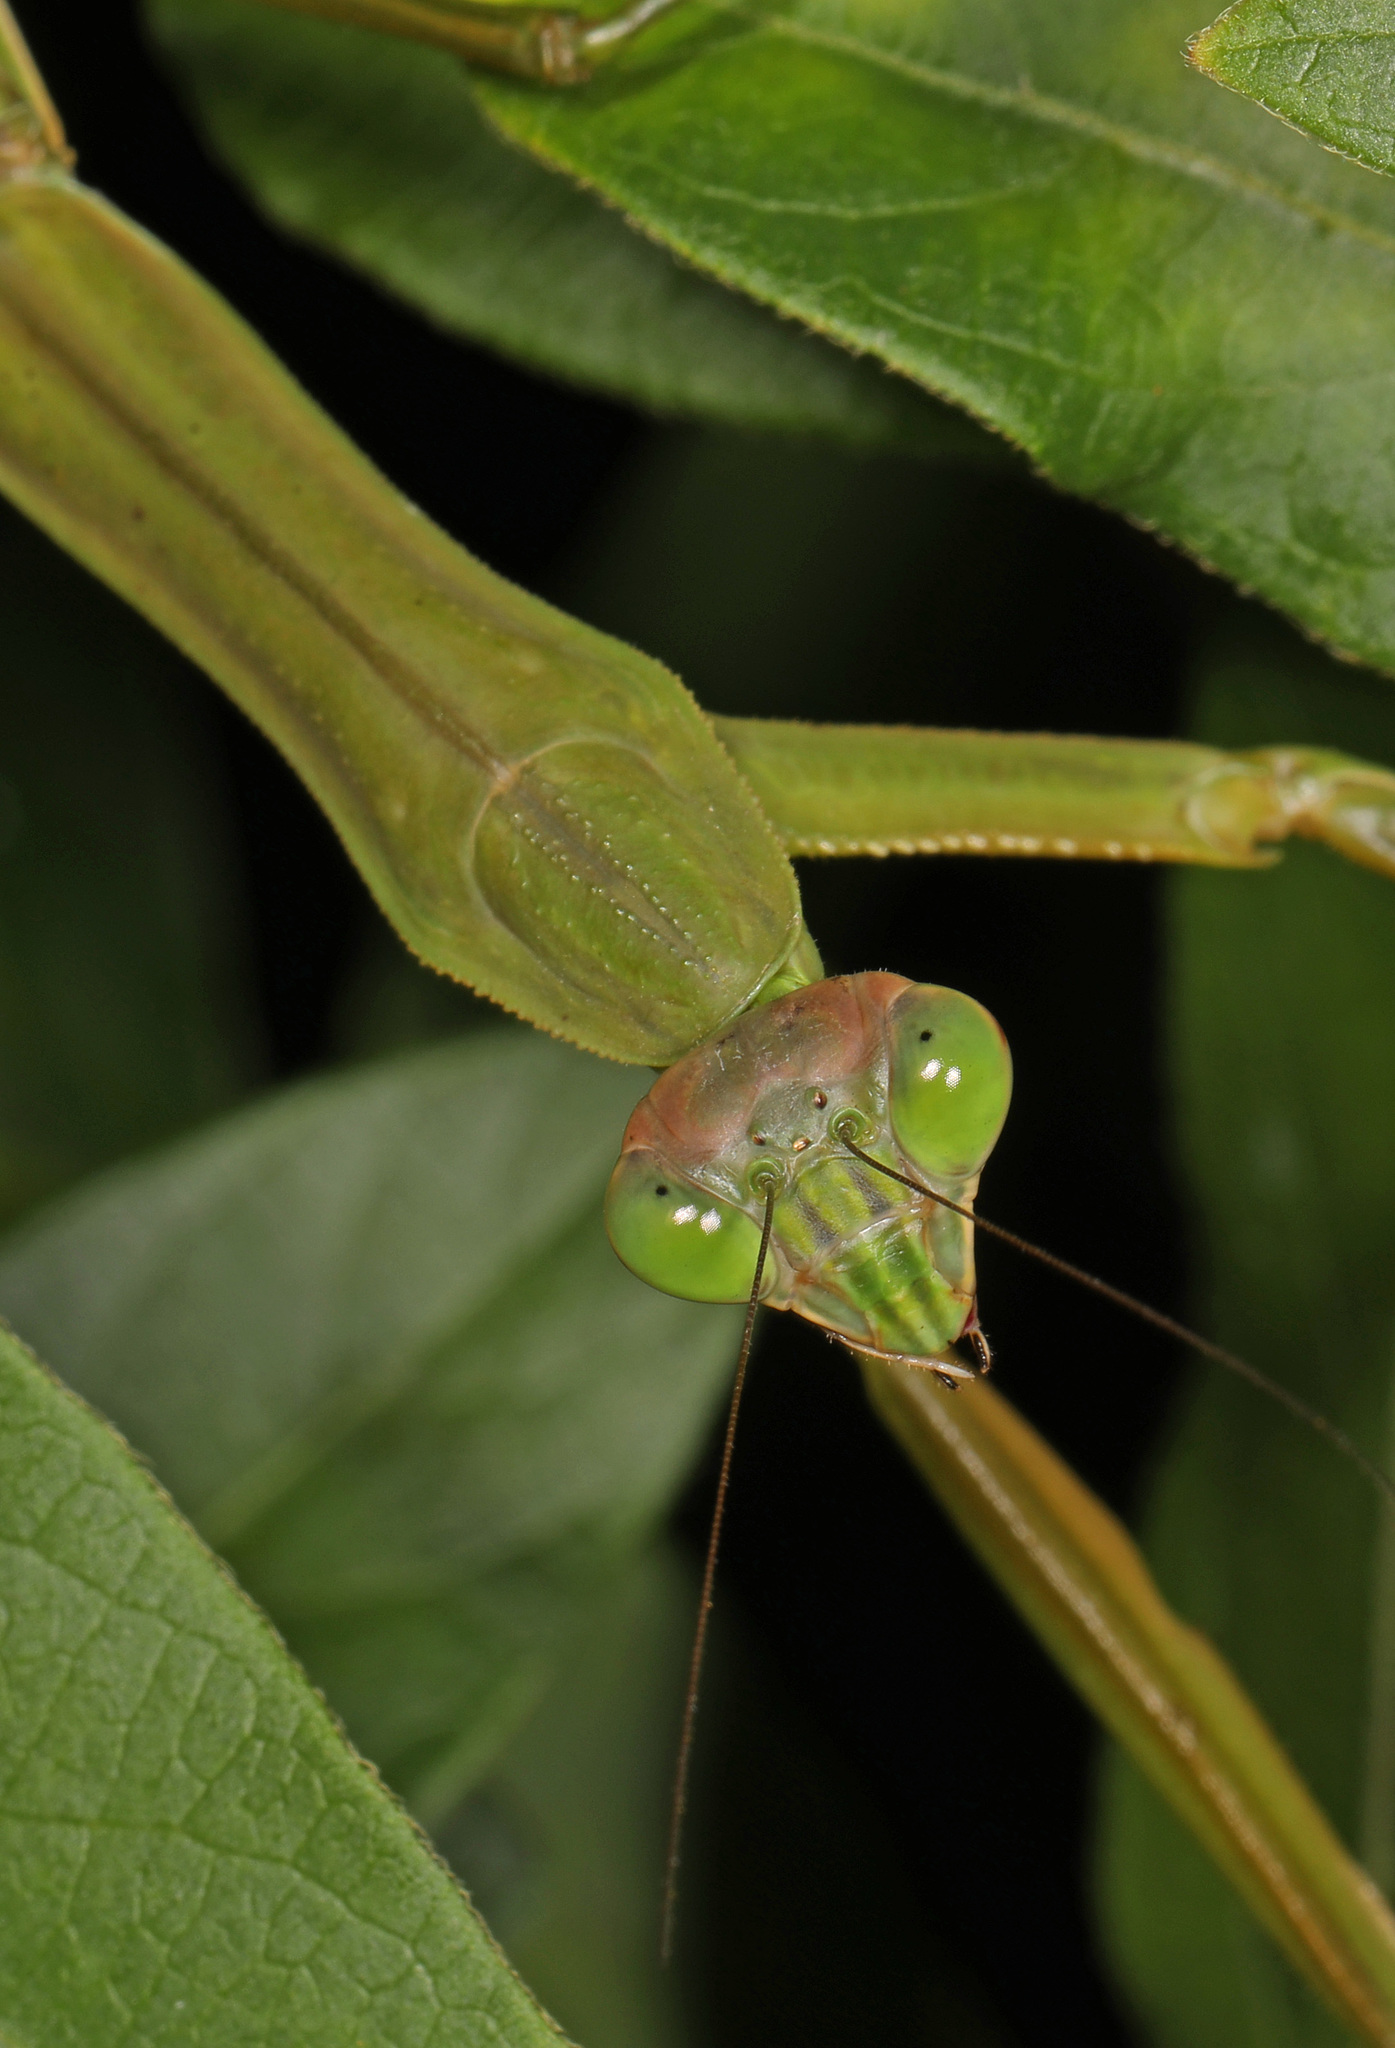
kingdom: Animalia
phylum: Arthropoda
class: Insecta
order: Mantodea
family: Mantidae
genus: Tenodera
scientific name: Tenodera sinensis
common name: Chinese mantis
